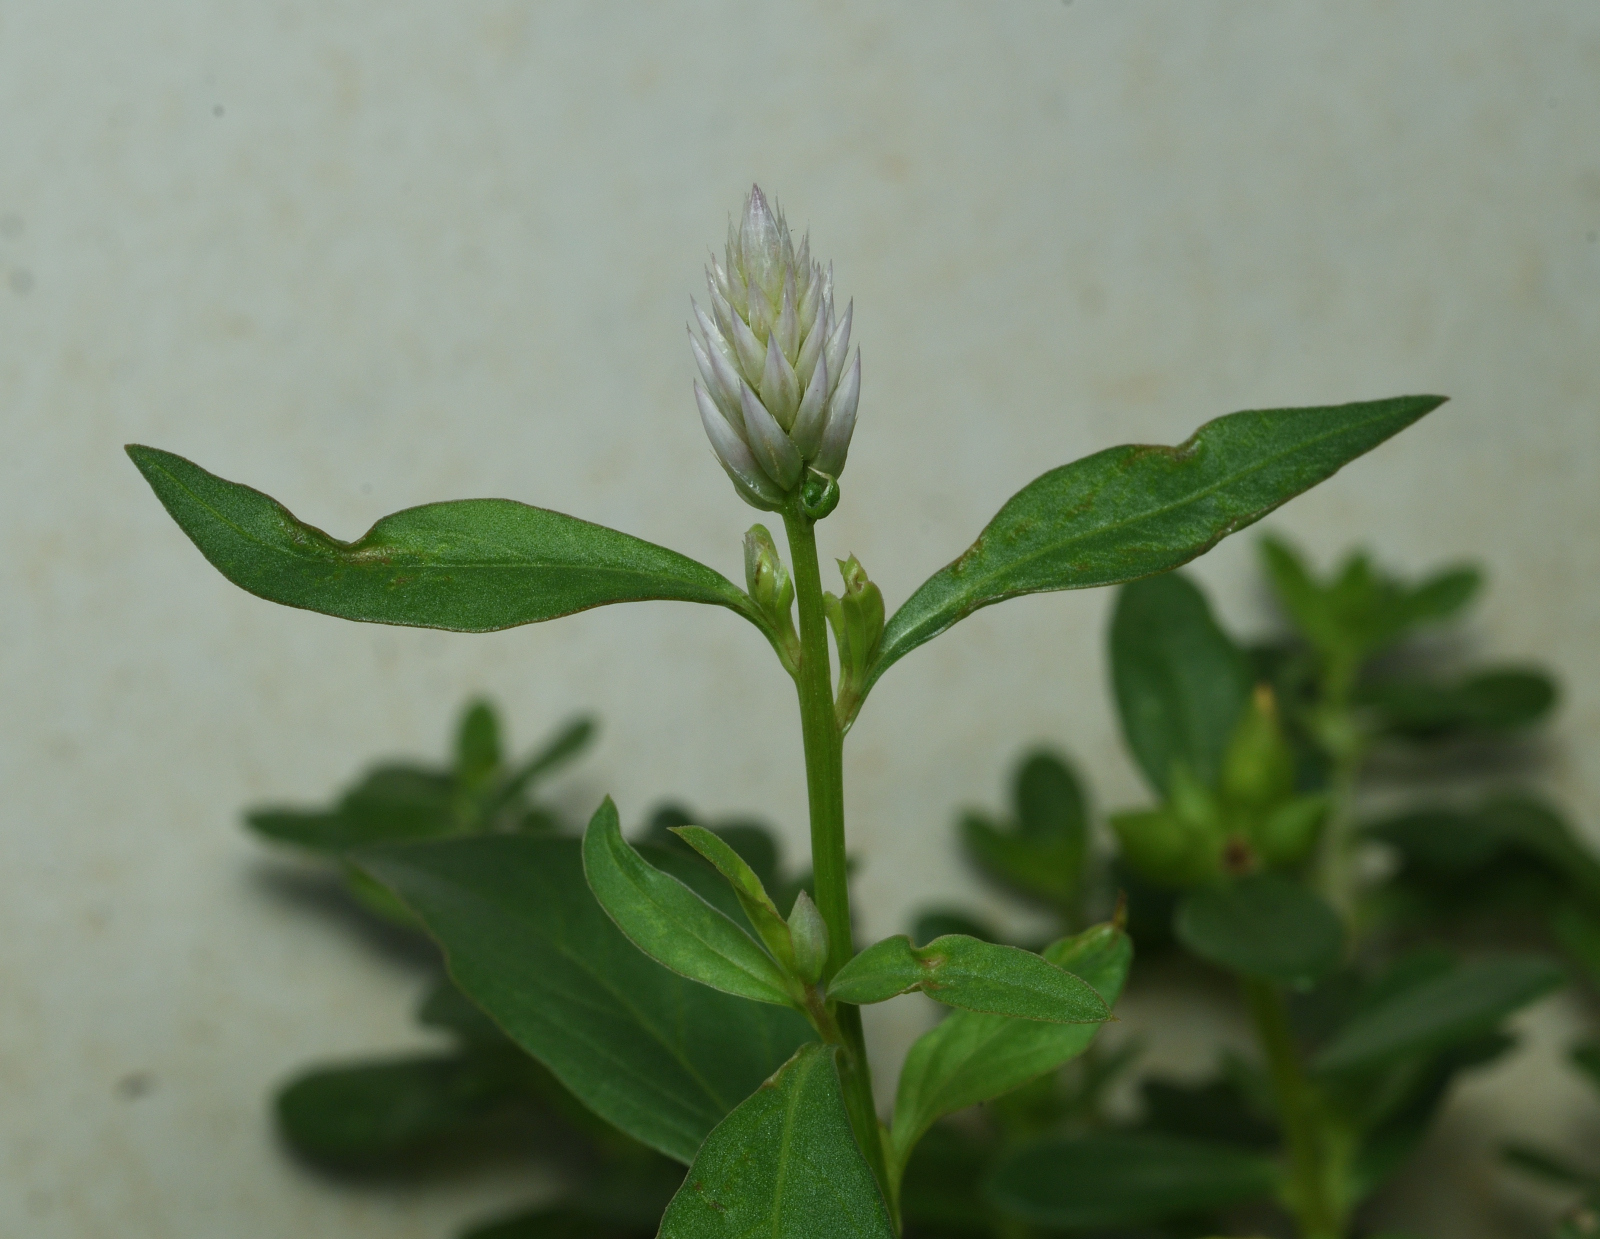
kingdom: Plantae
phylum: Tracheophyta
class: Magnoliopsida
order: Caryophyllales
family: Amaranthaceae
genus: Celosia
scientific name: Celosia argentea
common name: Feather cockscomb
